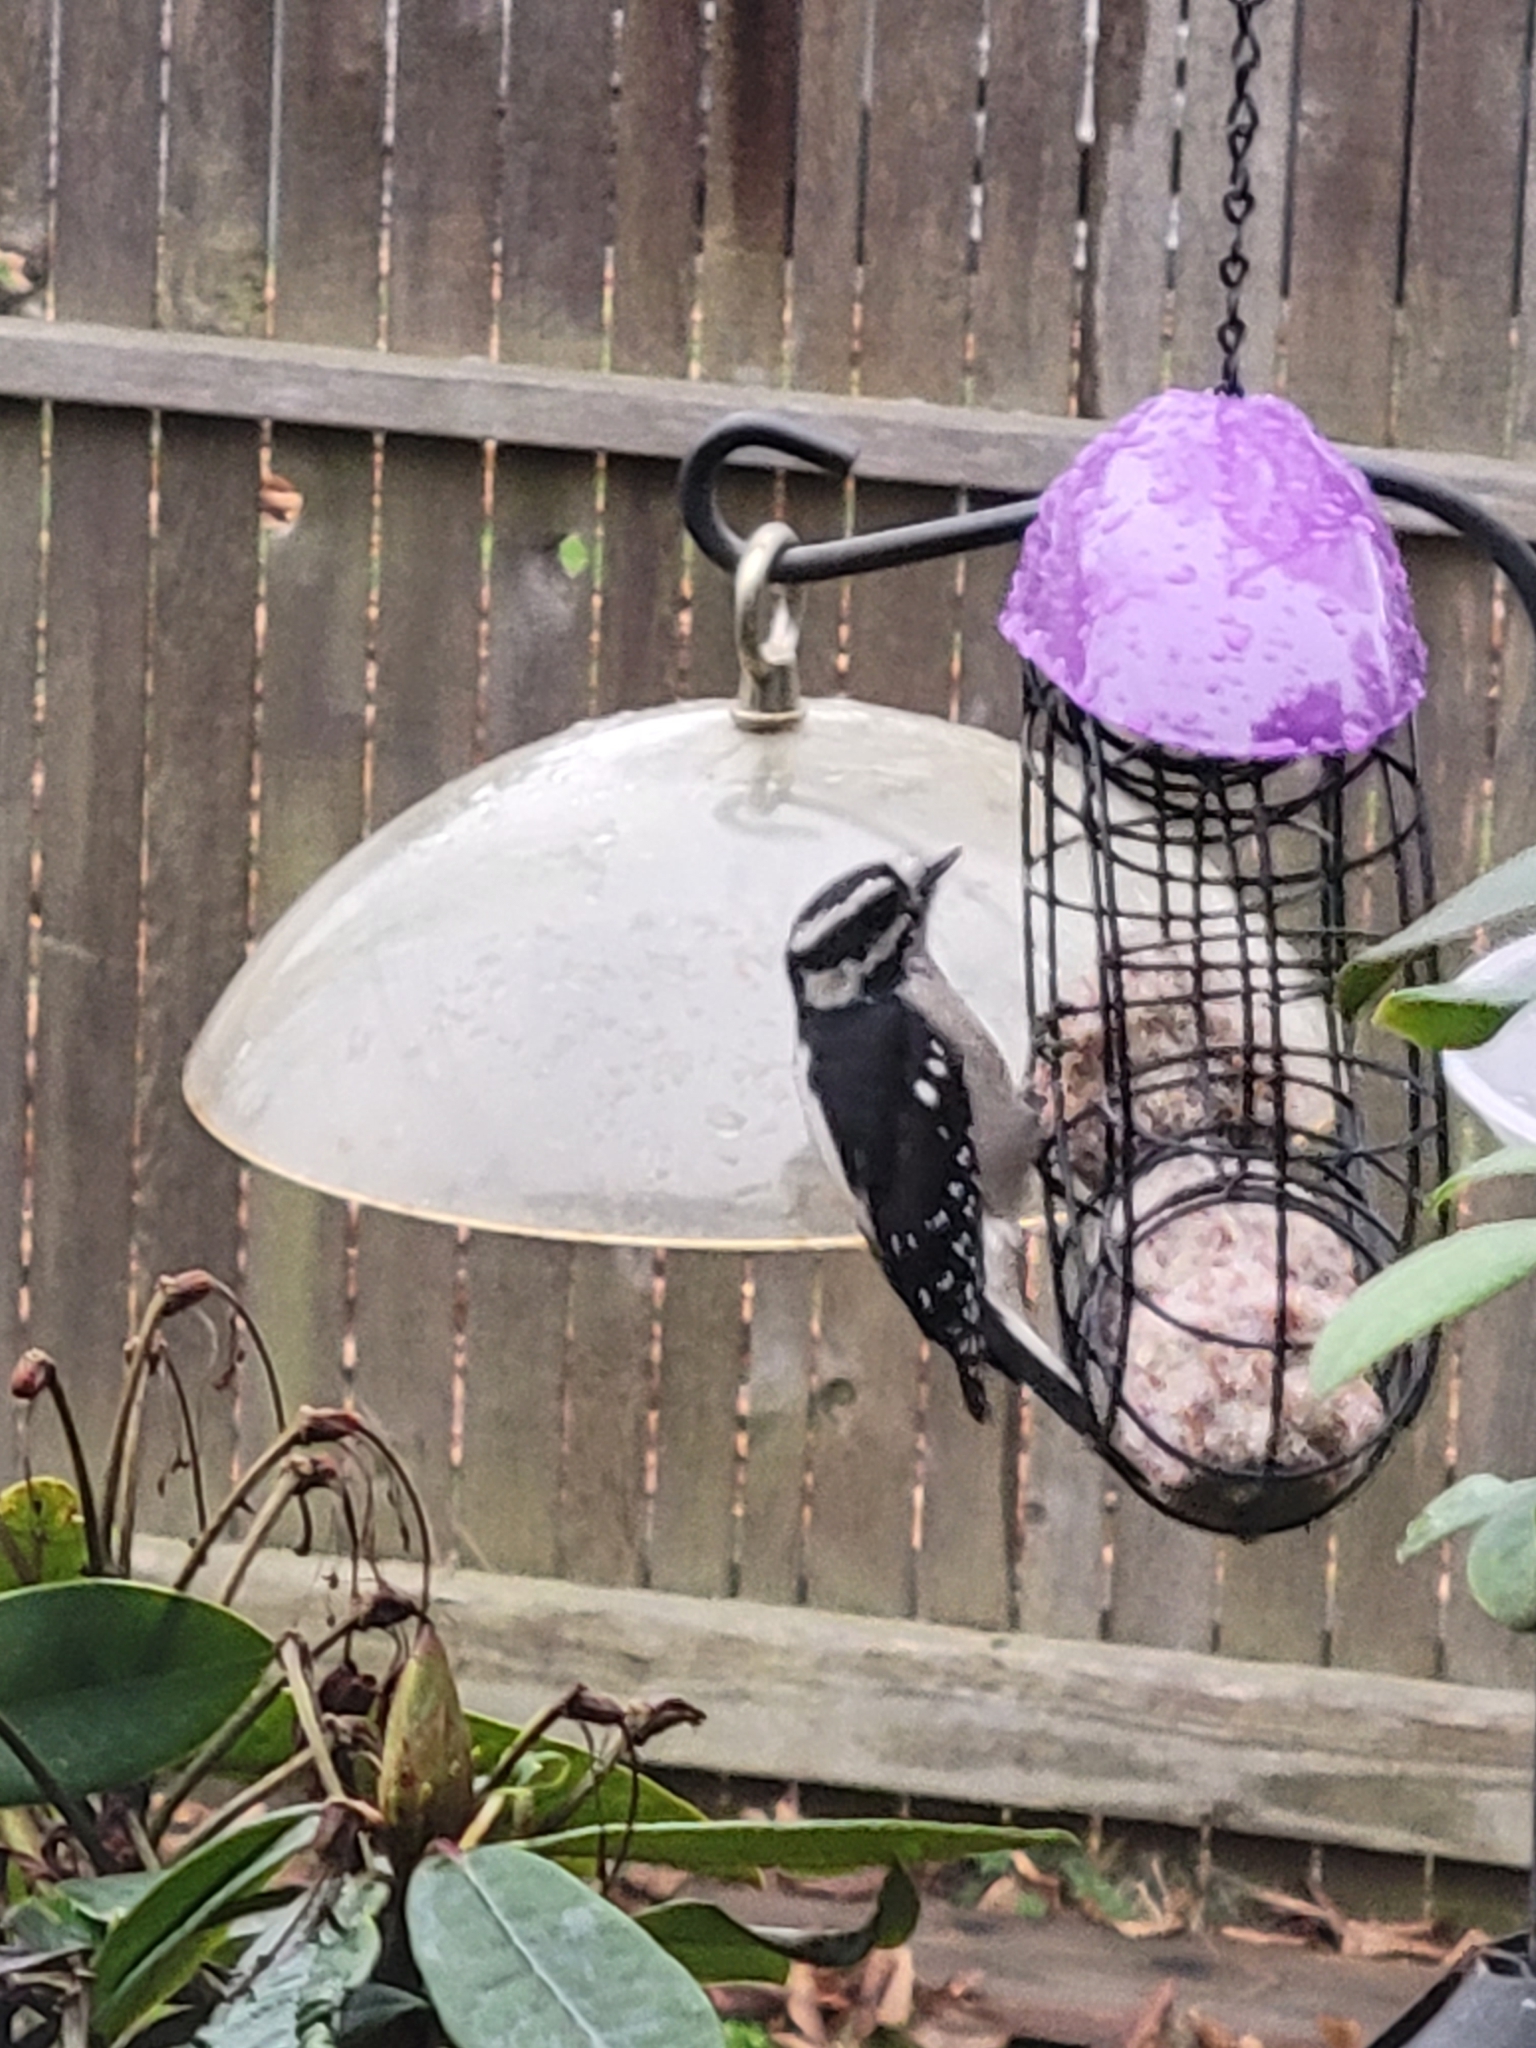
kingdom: Animalia
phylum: Chordata
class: Aves
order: Piciformes
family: Picidae
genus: Dryobates
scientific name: Dryobates pubescens
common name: Downy woodpecker
